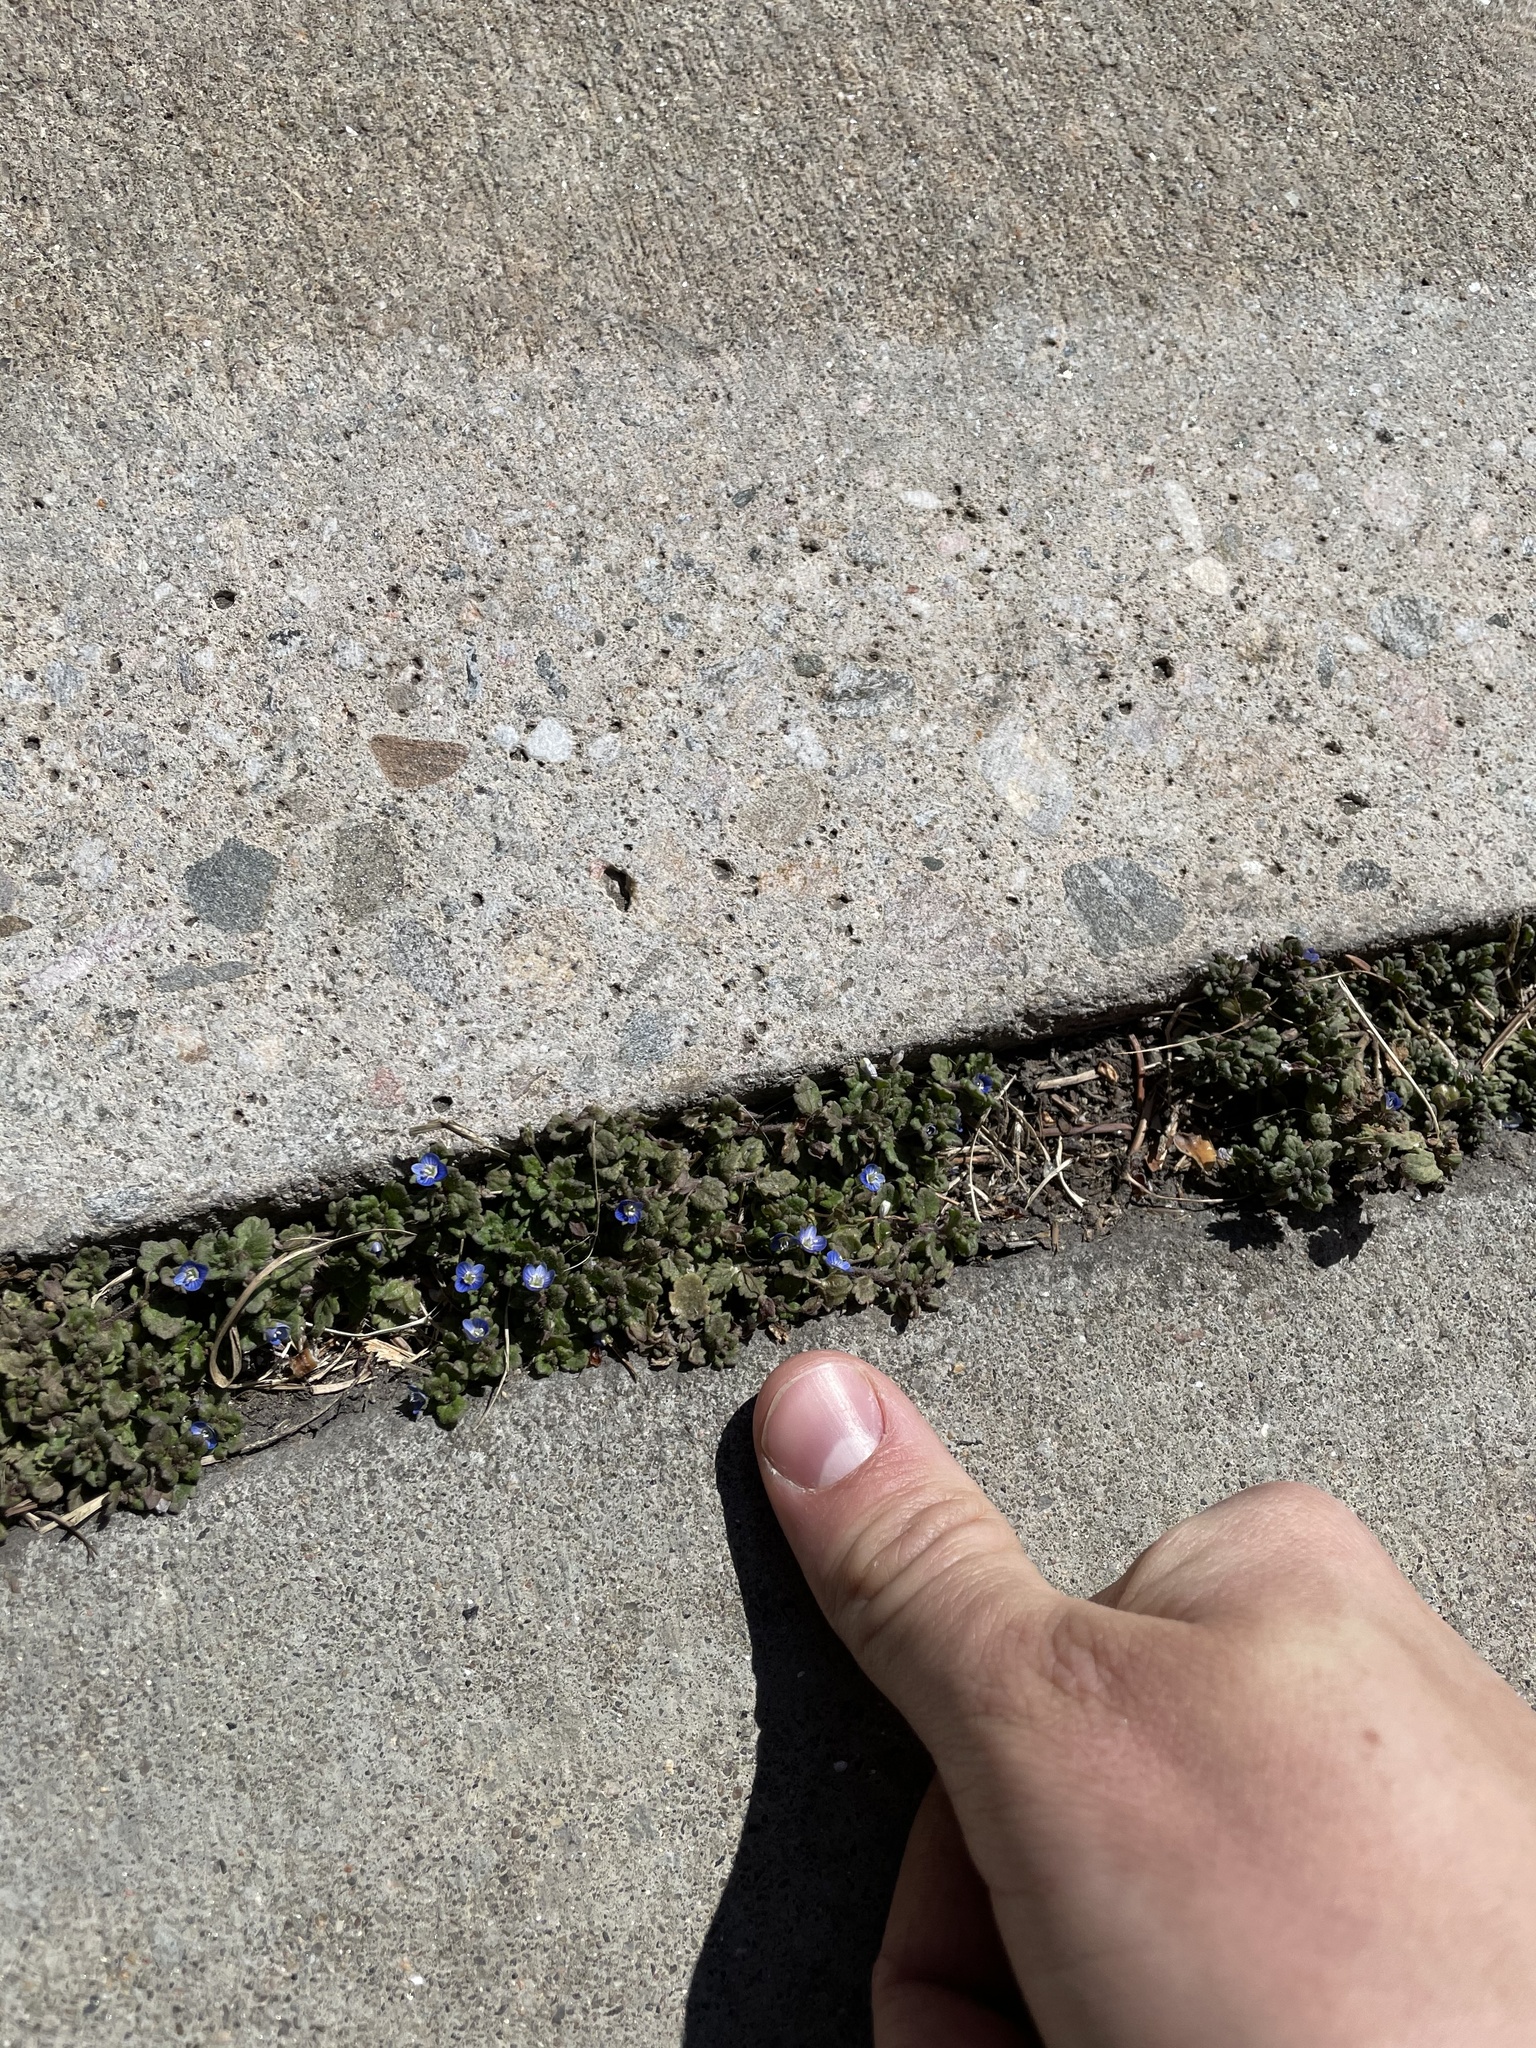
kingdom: Plantae
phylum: Tracheophyta
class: Magnoliopsida
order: Lamiales
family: Plantaginaceae
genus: Veronica
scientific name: Veronica polita
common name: Grey field-speedwell
